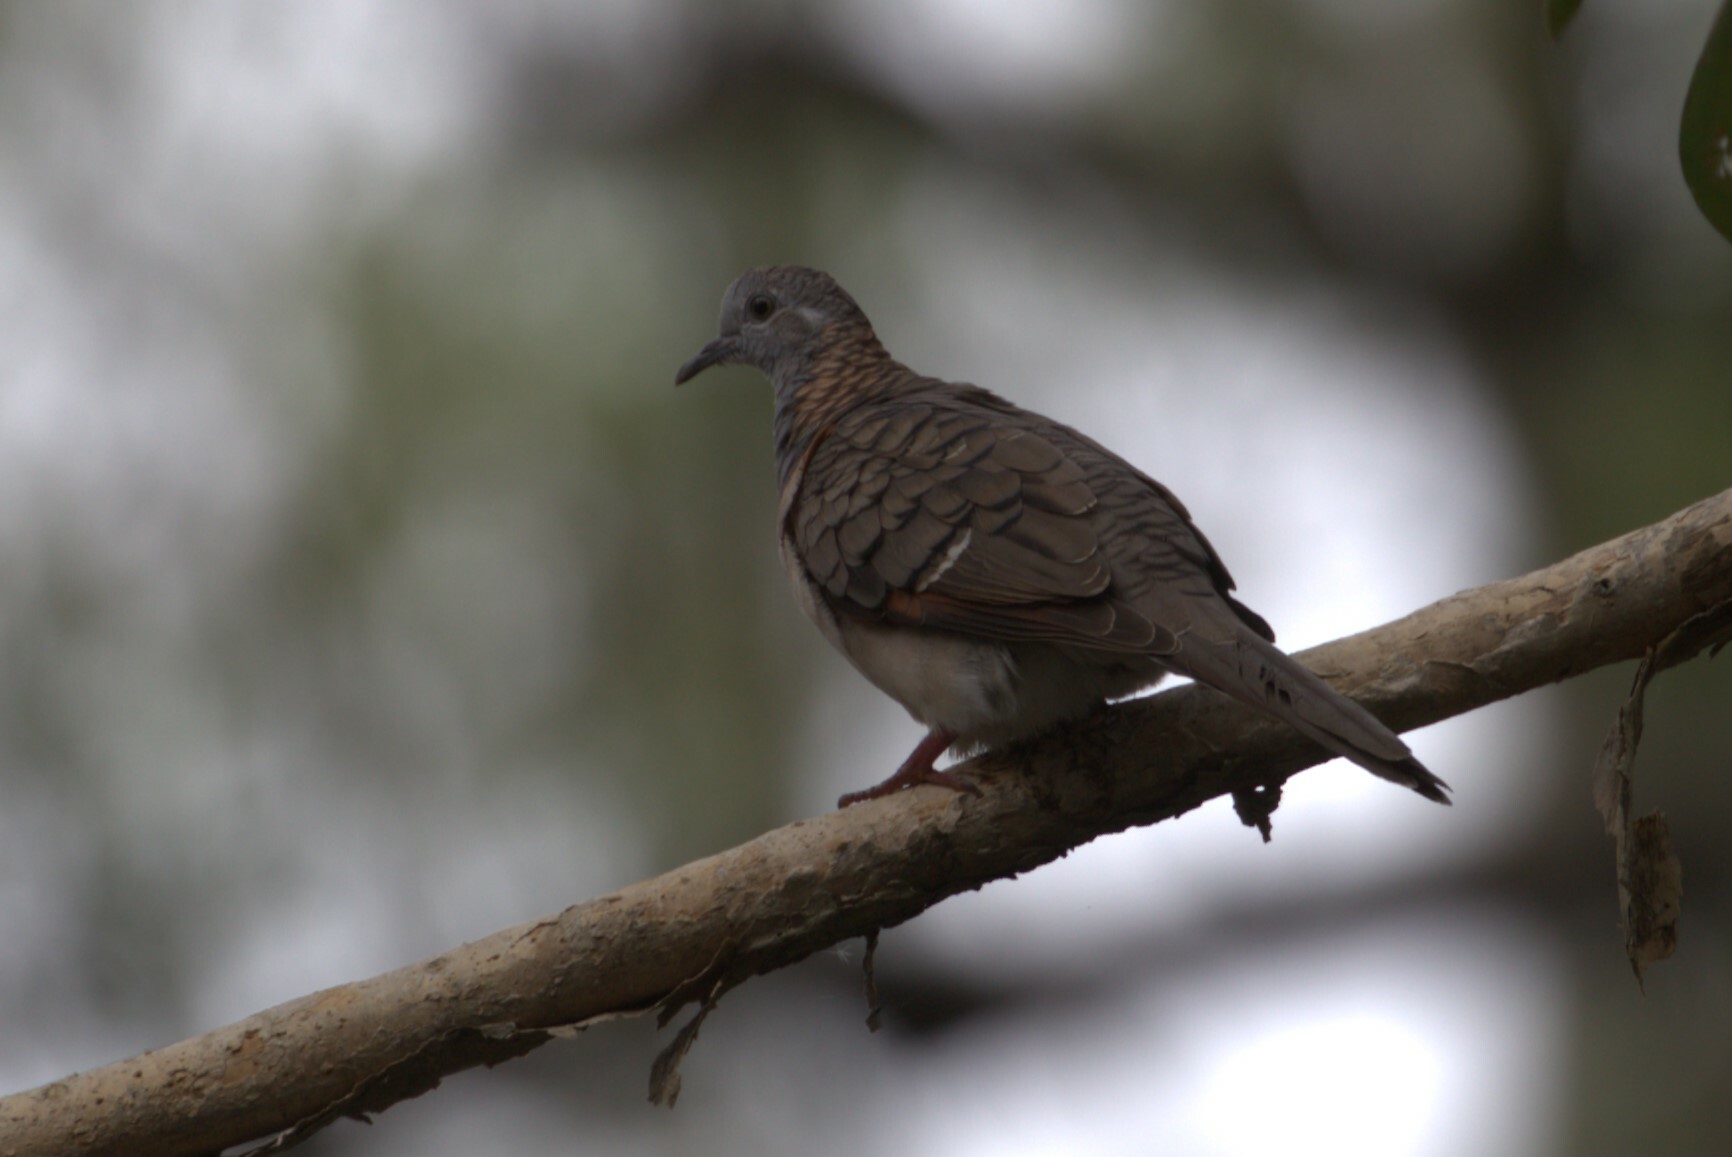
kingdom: Animalia
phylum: Chordata
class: Aves
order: Columbiformes
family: Columbidae
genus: Geopelia
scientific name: Geopelia humeralis
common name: Bar-shouldered dove
